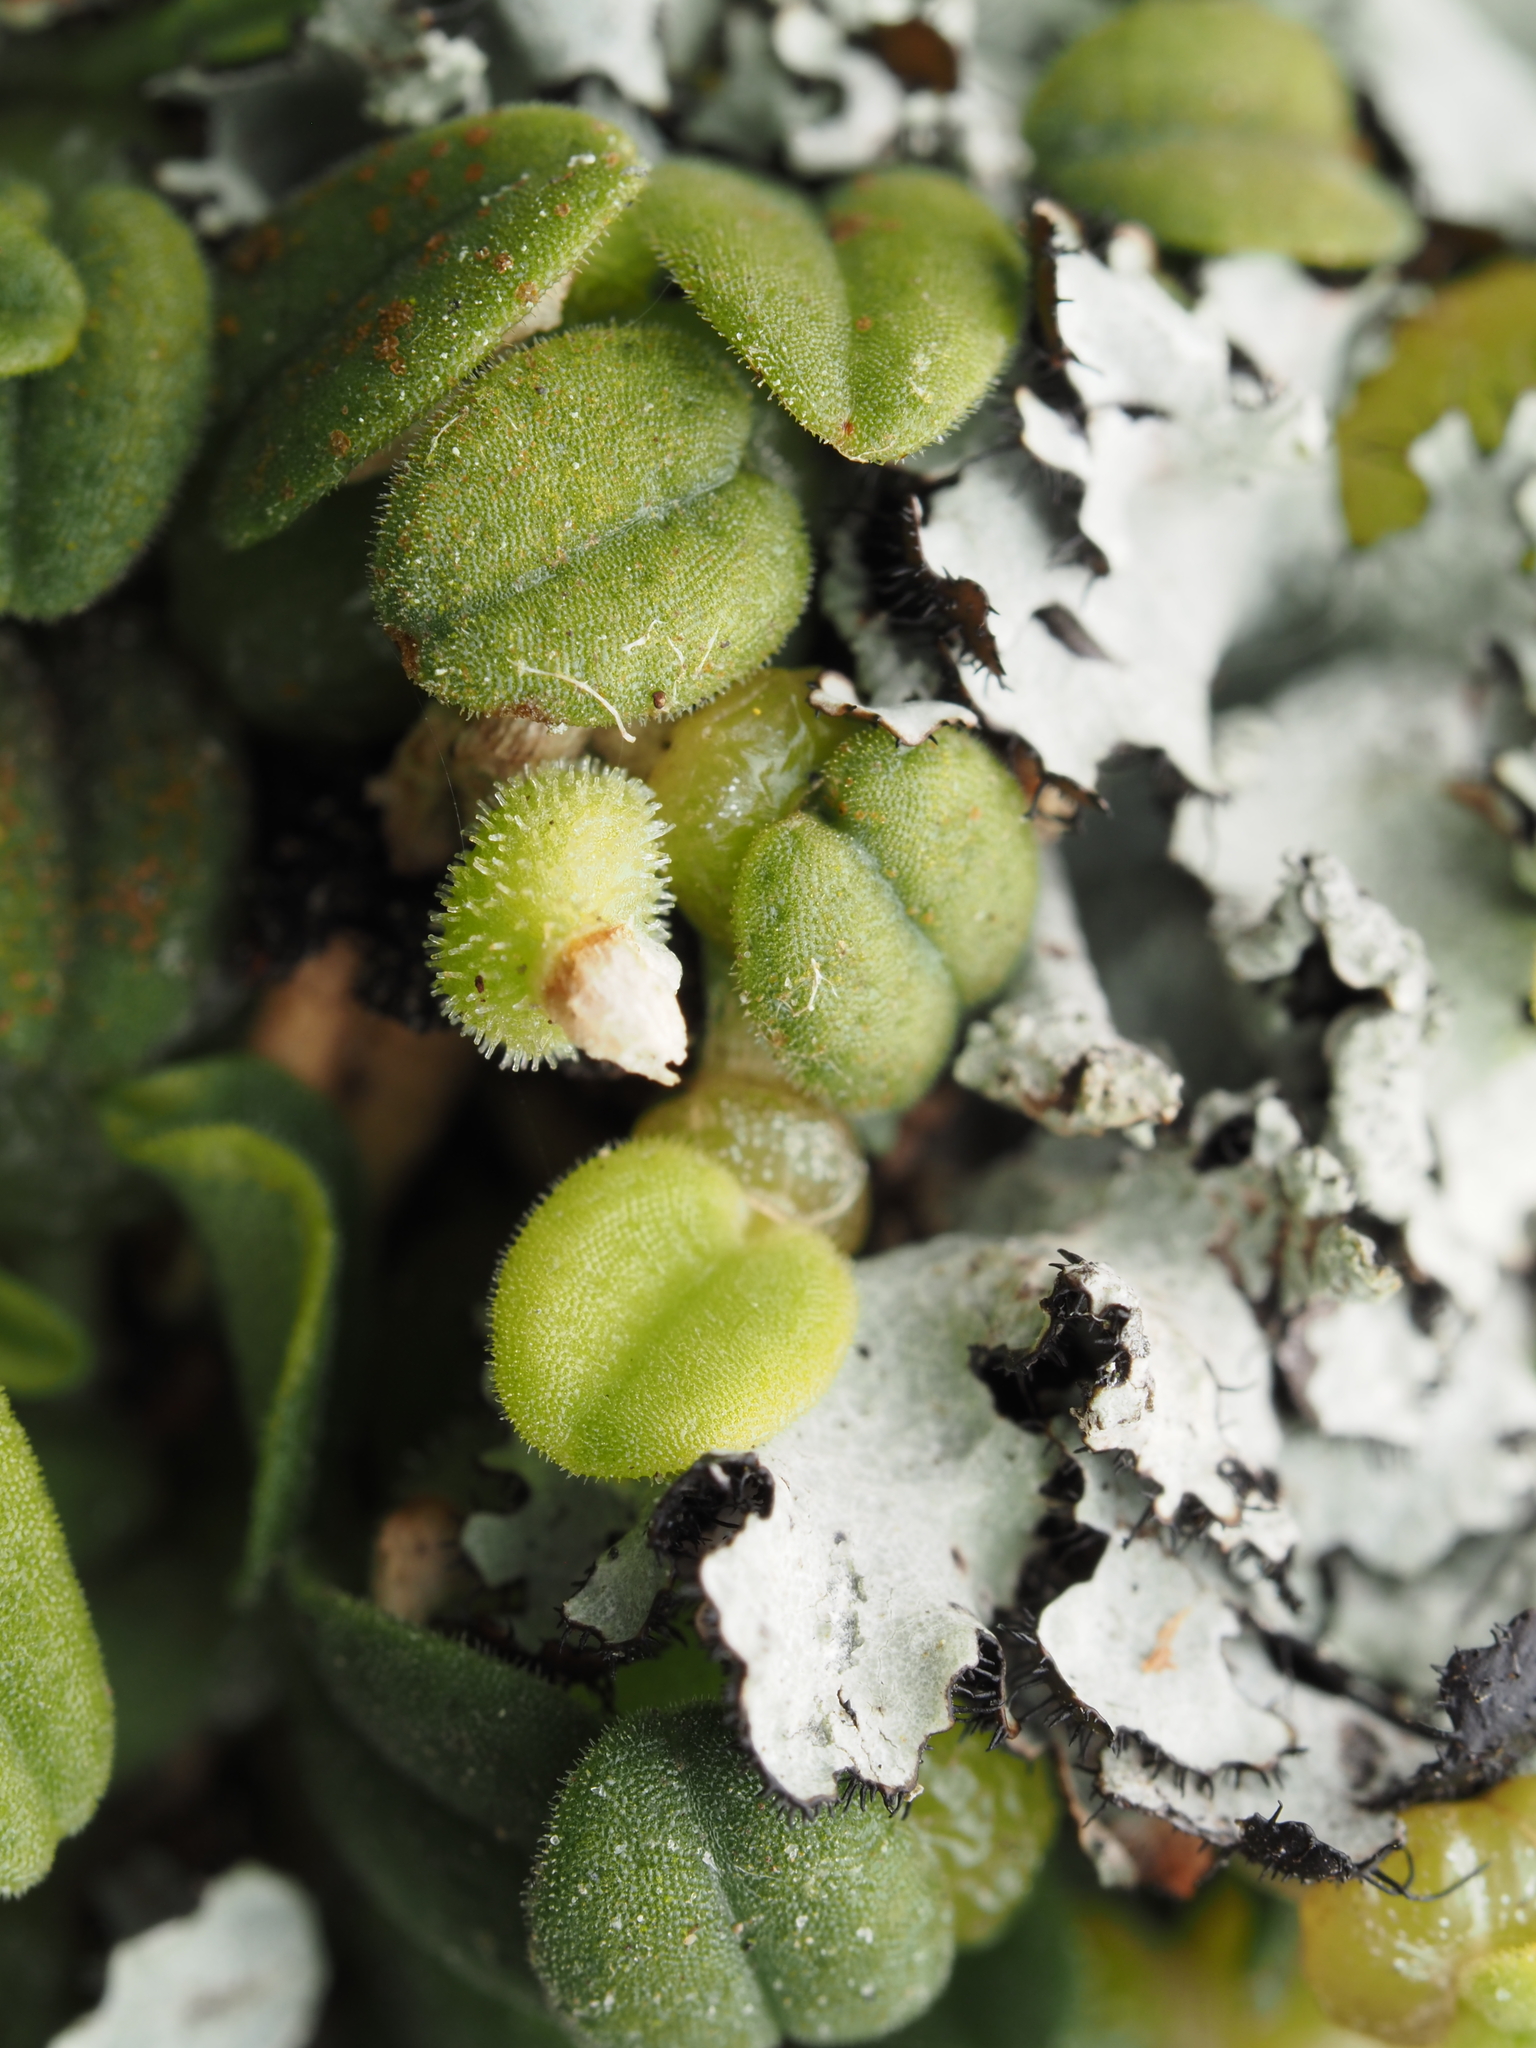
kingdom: Plantae
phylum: Tracheophyta
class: Liliopsida
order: Asparagales
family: Orchidaceae
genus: Bulbophyllum
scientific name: Bulbophyllum pygmaeum
